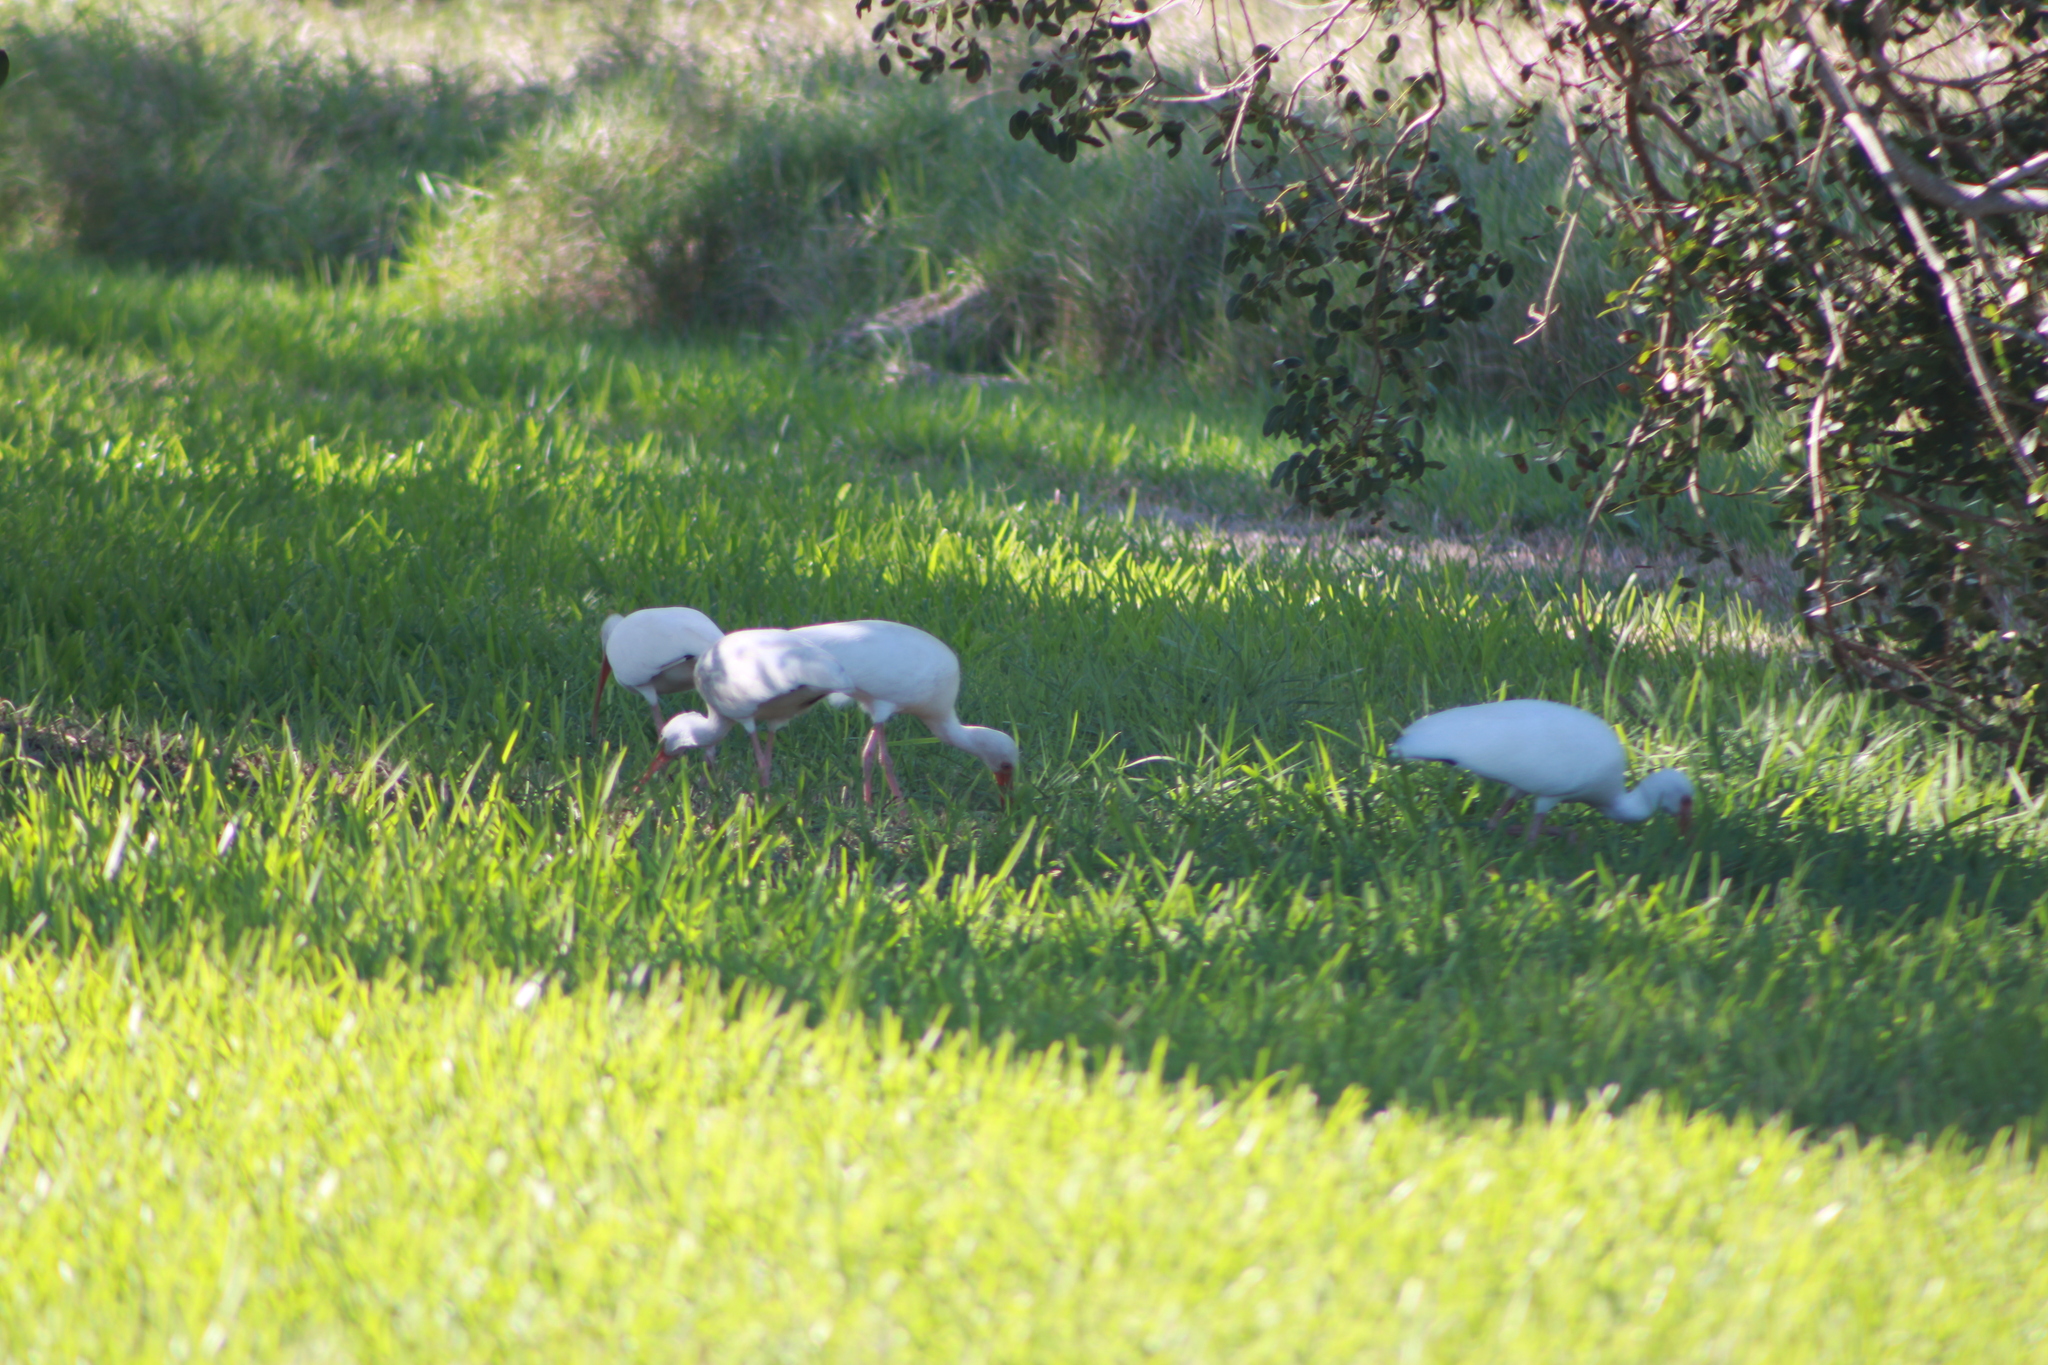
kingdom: Animalia
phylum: Chordata
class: Aves
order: Pelecaniformes
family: Threskiornithidae
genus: Eudocimus
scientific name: Eudocimus albus
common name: White ibis
